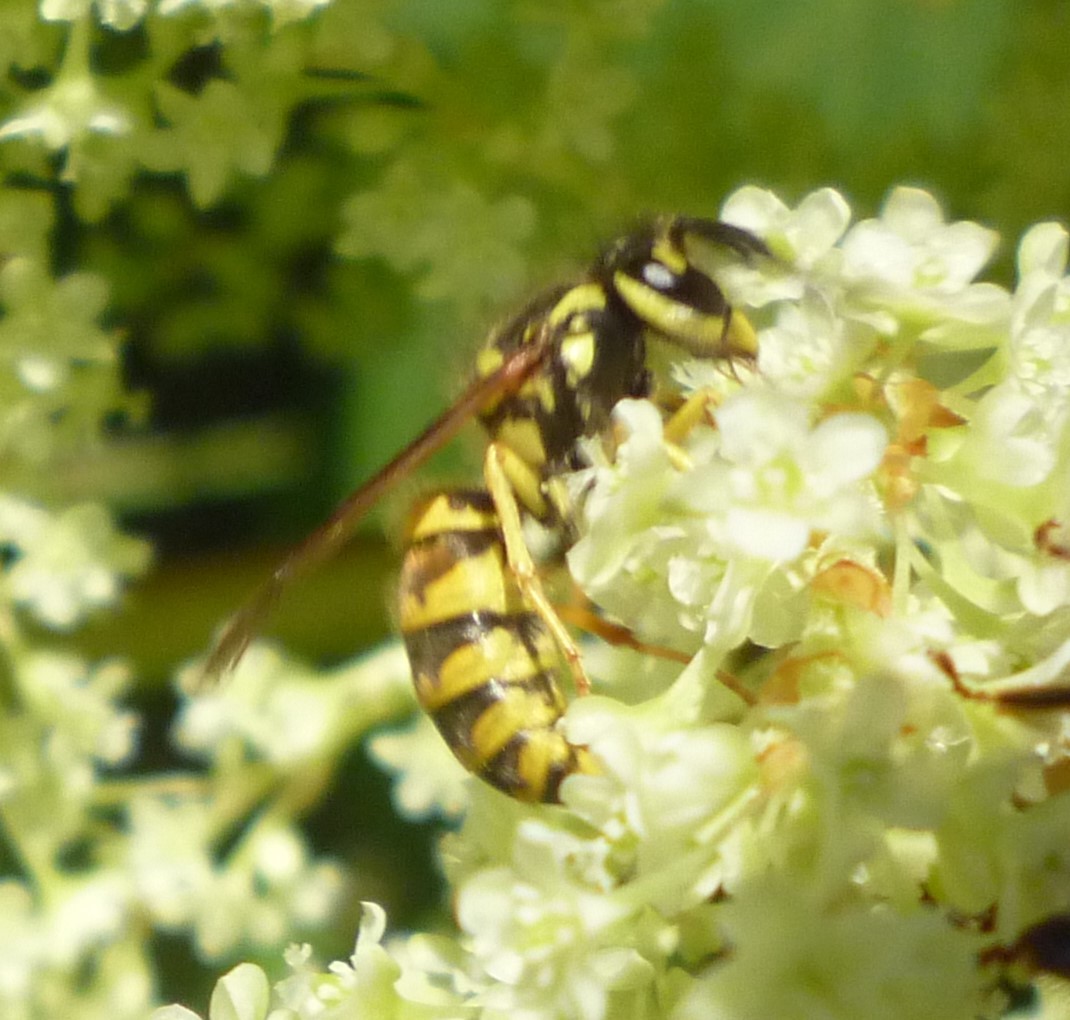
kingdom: Animalia
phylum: Arthropoda
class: Insecta
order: Hymenoptera
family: Vespidae
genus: Vespula
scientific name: Vespula flavopilosa
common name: Downy yellowjacket
